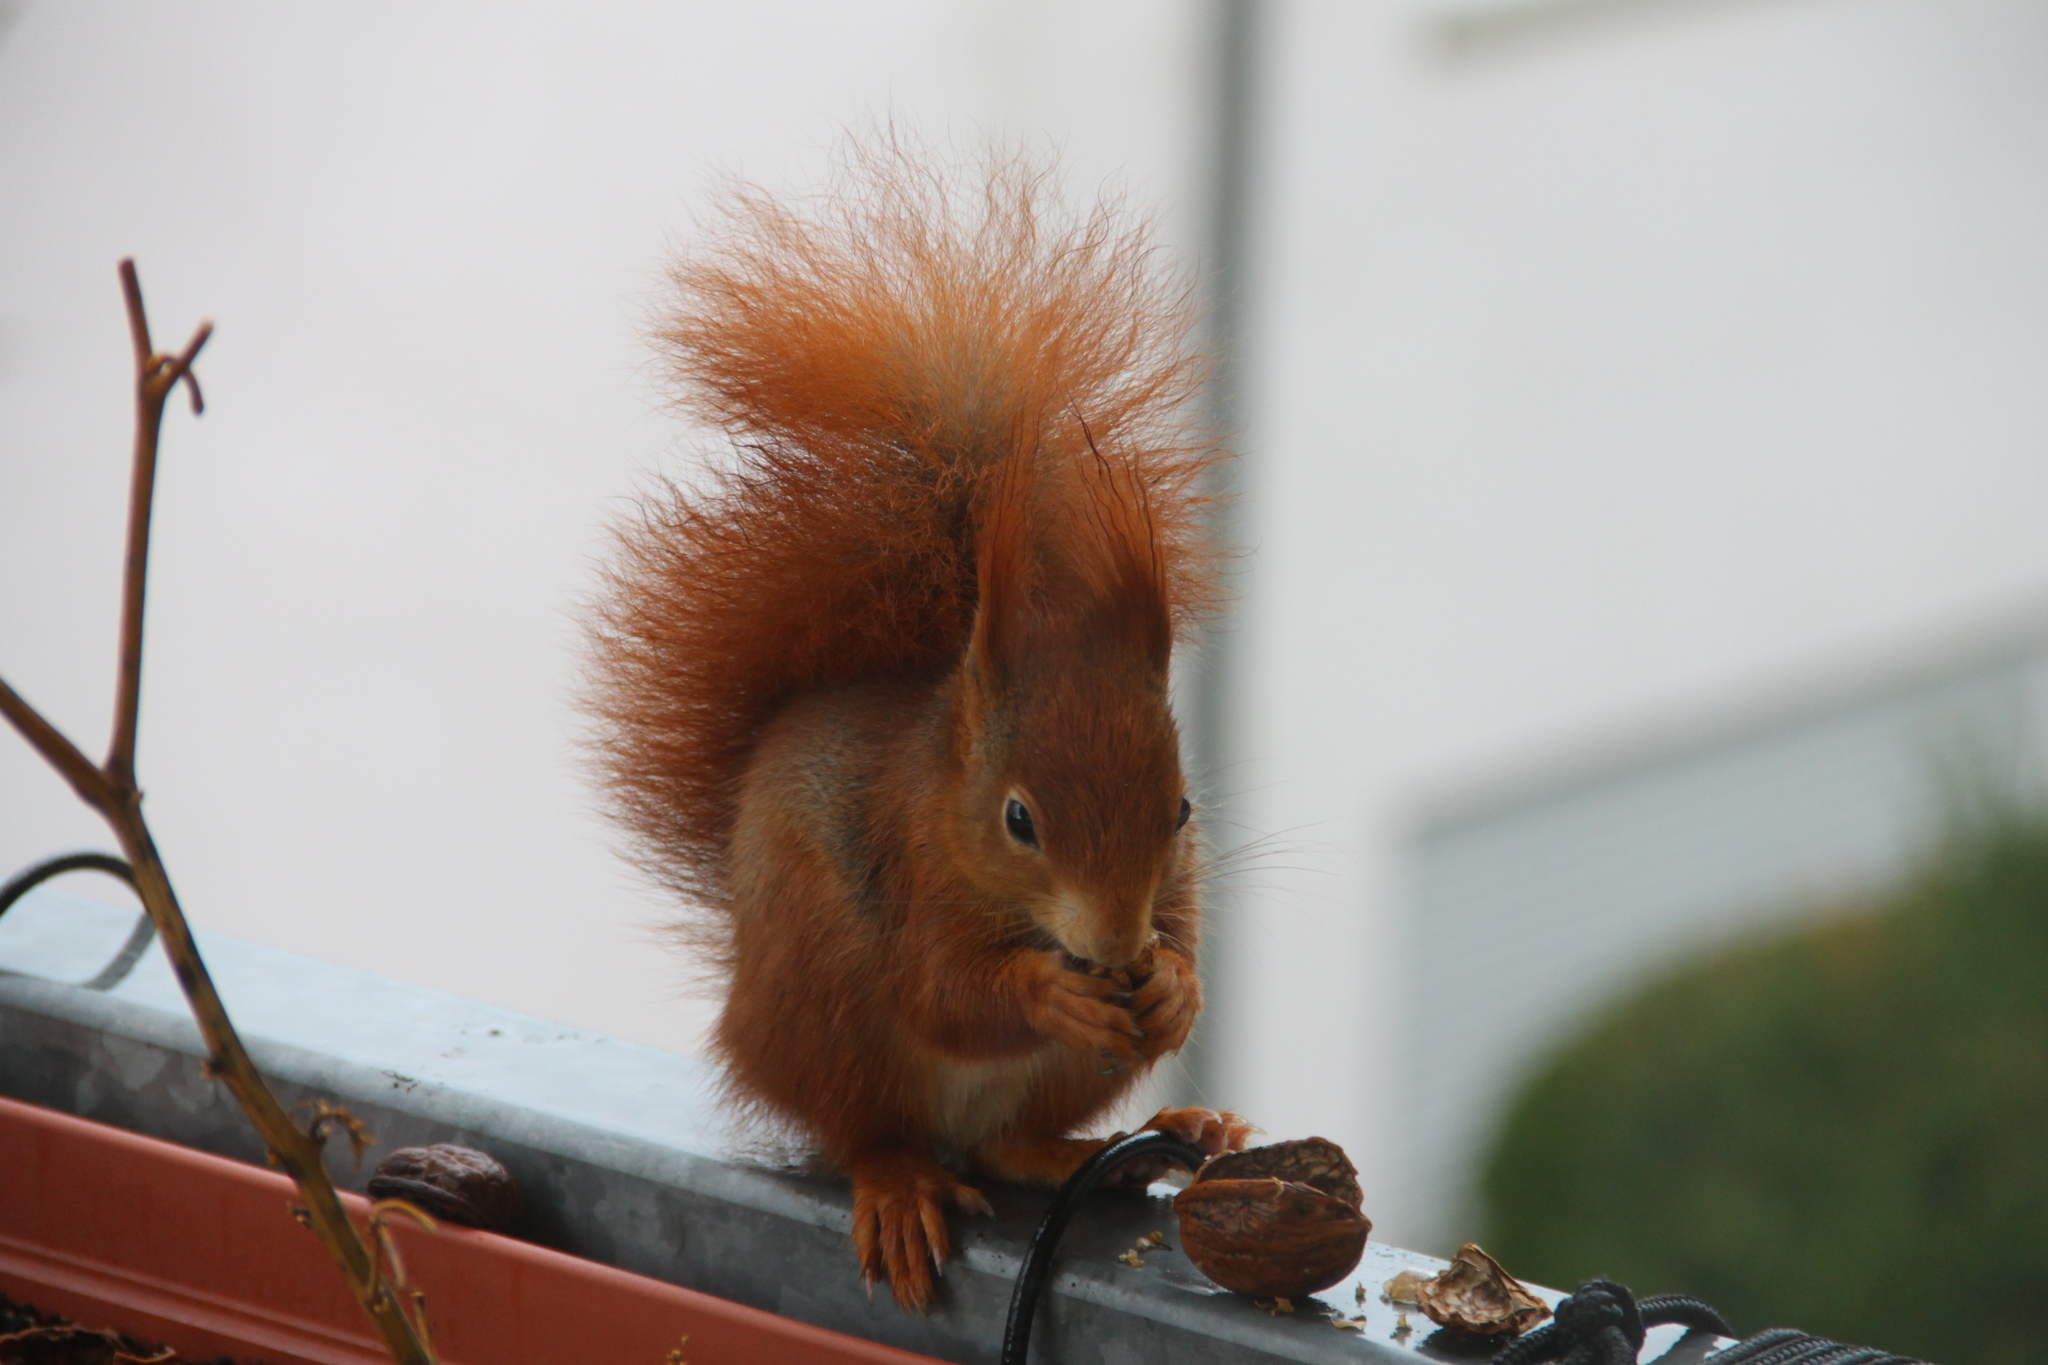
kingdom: Animalia
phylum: Chordata
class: Mammalia
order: Rodentia
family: Sciuridae
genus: Sciurus
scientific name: Sciurus vulgaris
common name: Eurasian red squirrel
